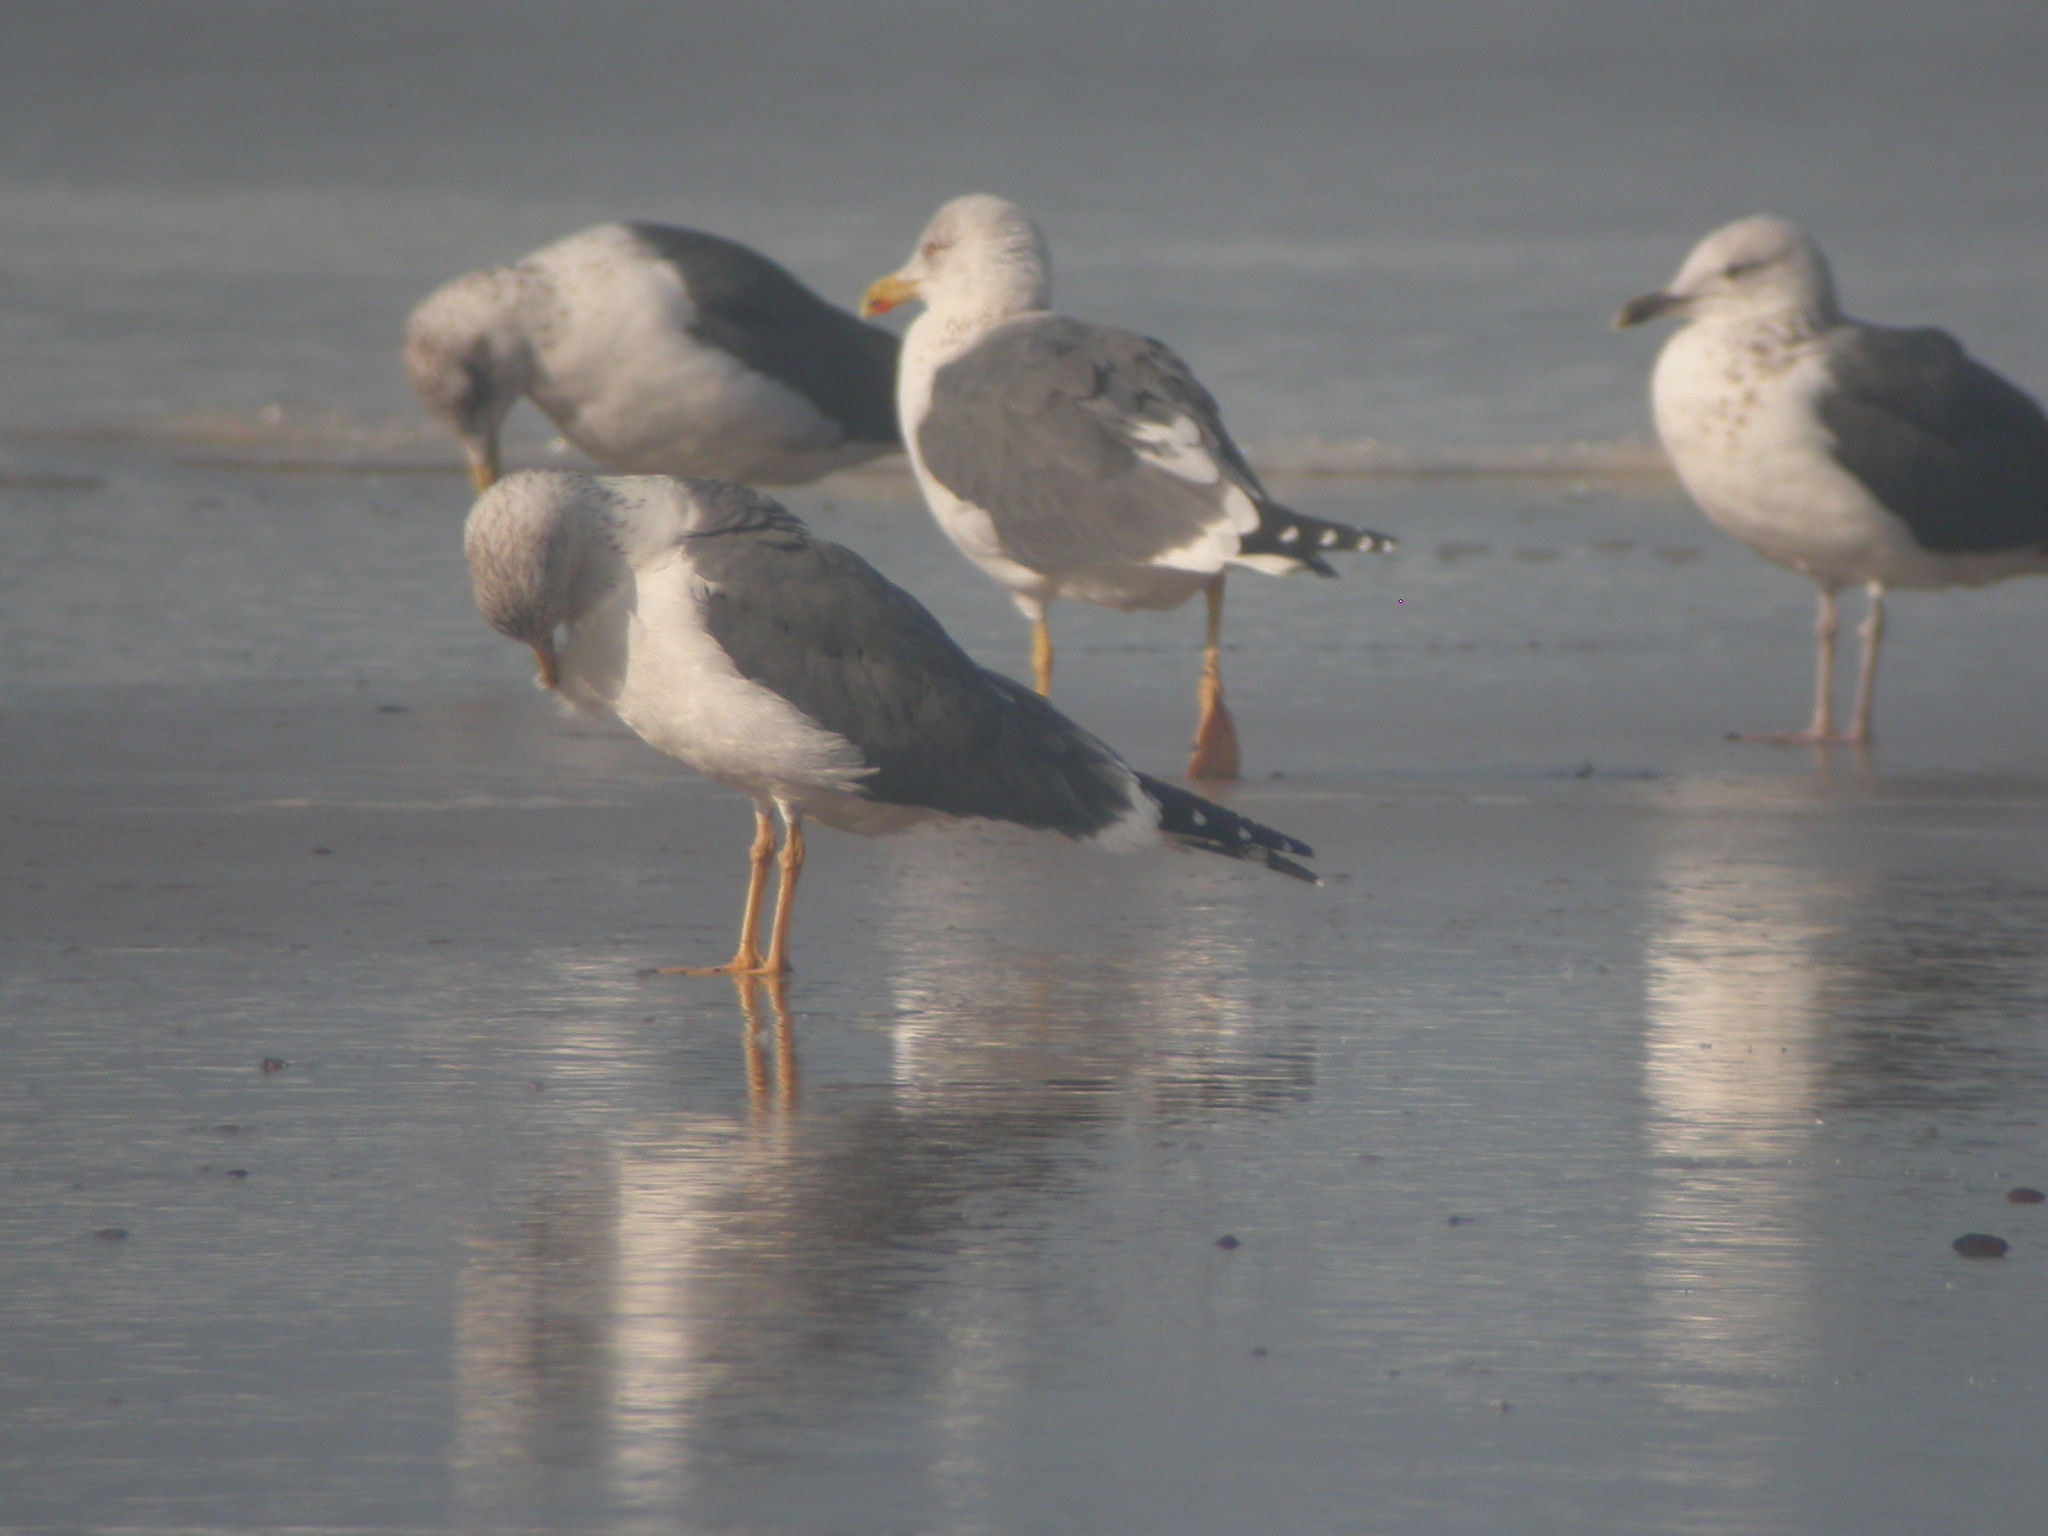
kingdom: Animalia
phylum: Chordata
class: Aves
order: Charadriiformes
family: Laridae
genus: Larus
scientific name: Larus fuscus
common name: Lesser black-backed gull
